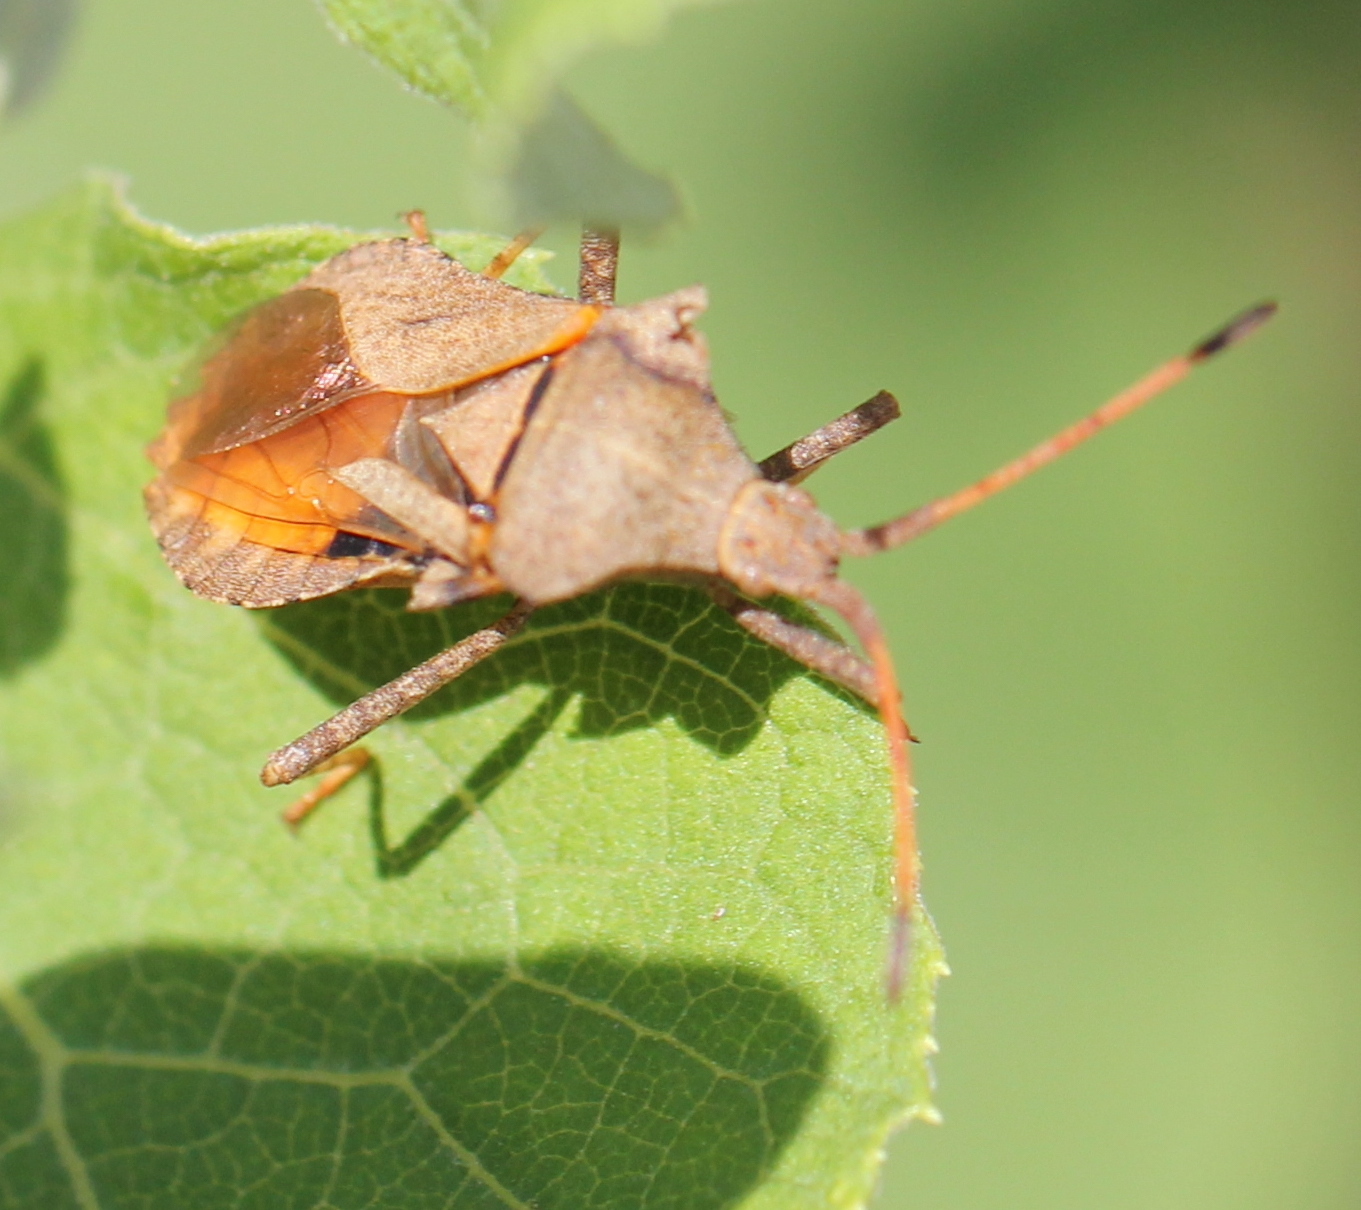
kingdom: Animalia
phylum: Arthropoda
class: Insecta
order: Hemiptera
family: Coreidae
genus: Coreus
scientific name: Coreus marginatus
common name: Dock bug
